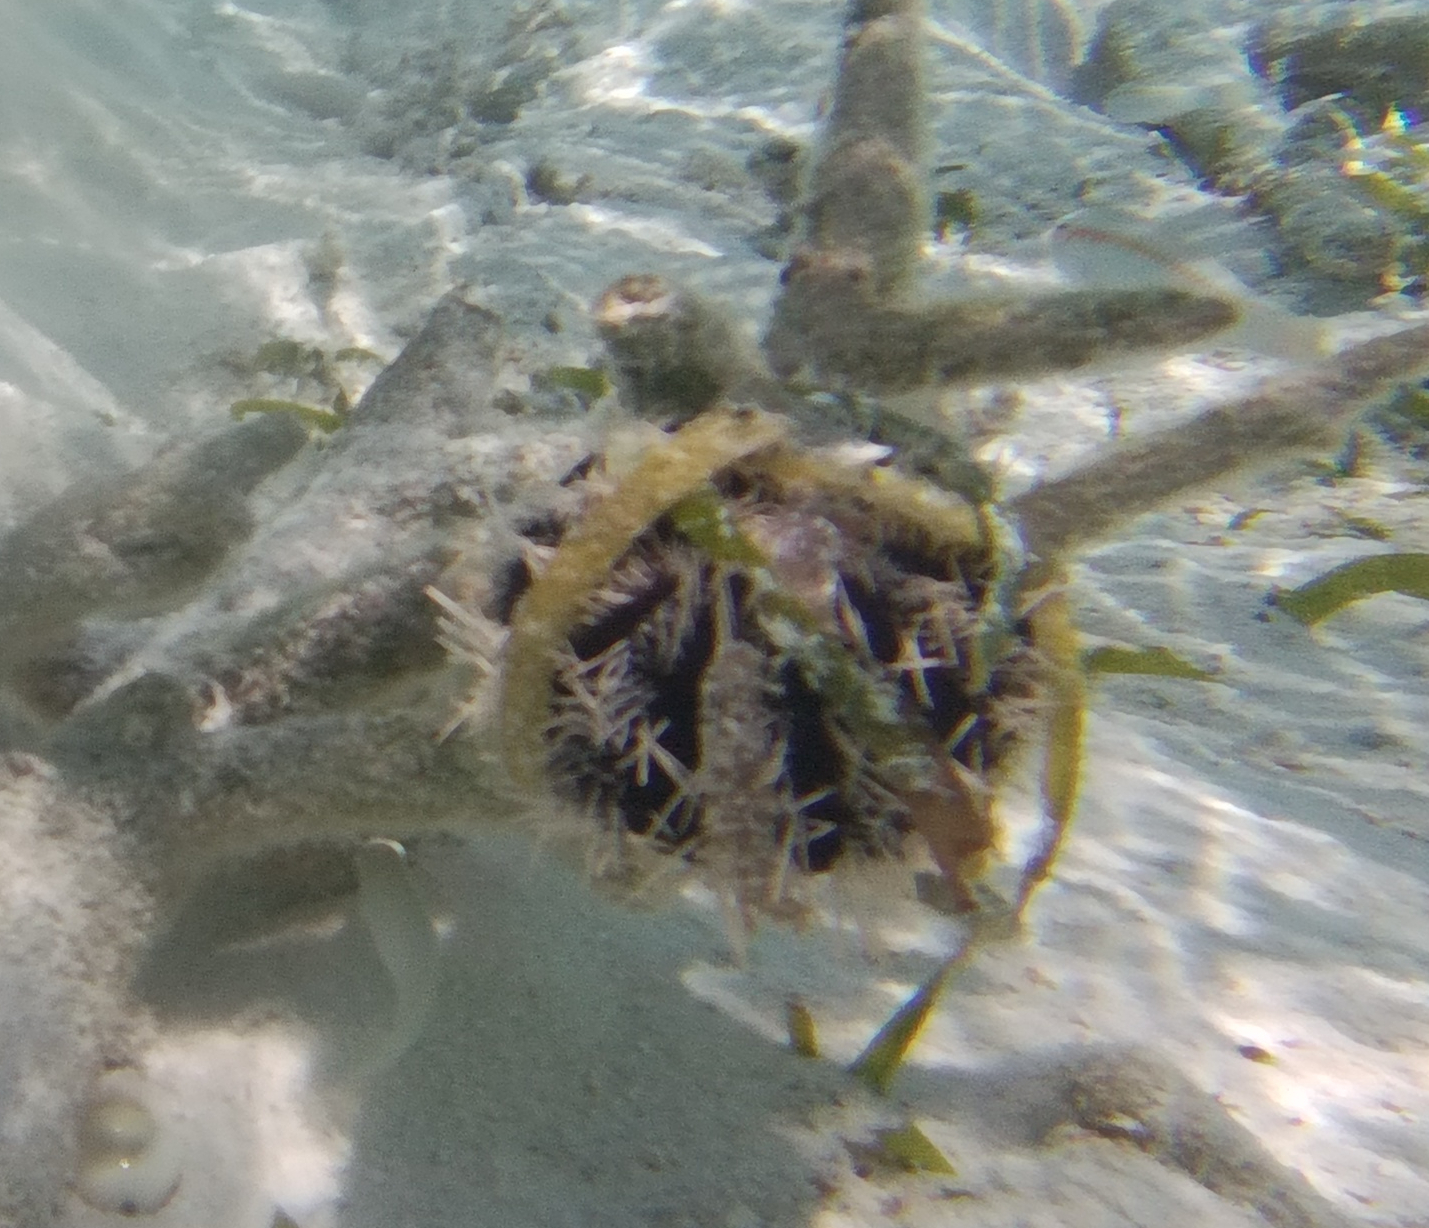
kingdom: Animalia
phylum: Echinodermata
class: Echinoidea
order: Camarodonta
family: Toxopneustidae
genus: Tripneustes
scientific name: Tripneustes gratilla
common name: Bischofsmützenseeigel
